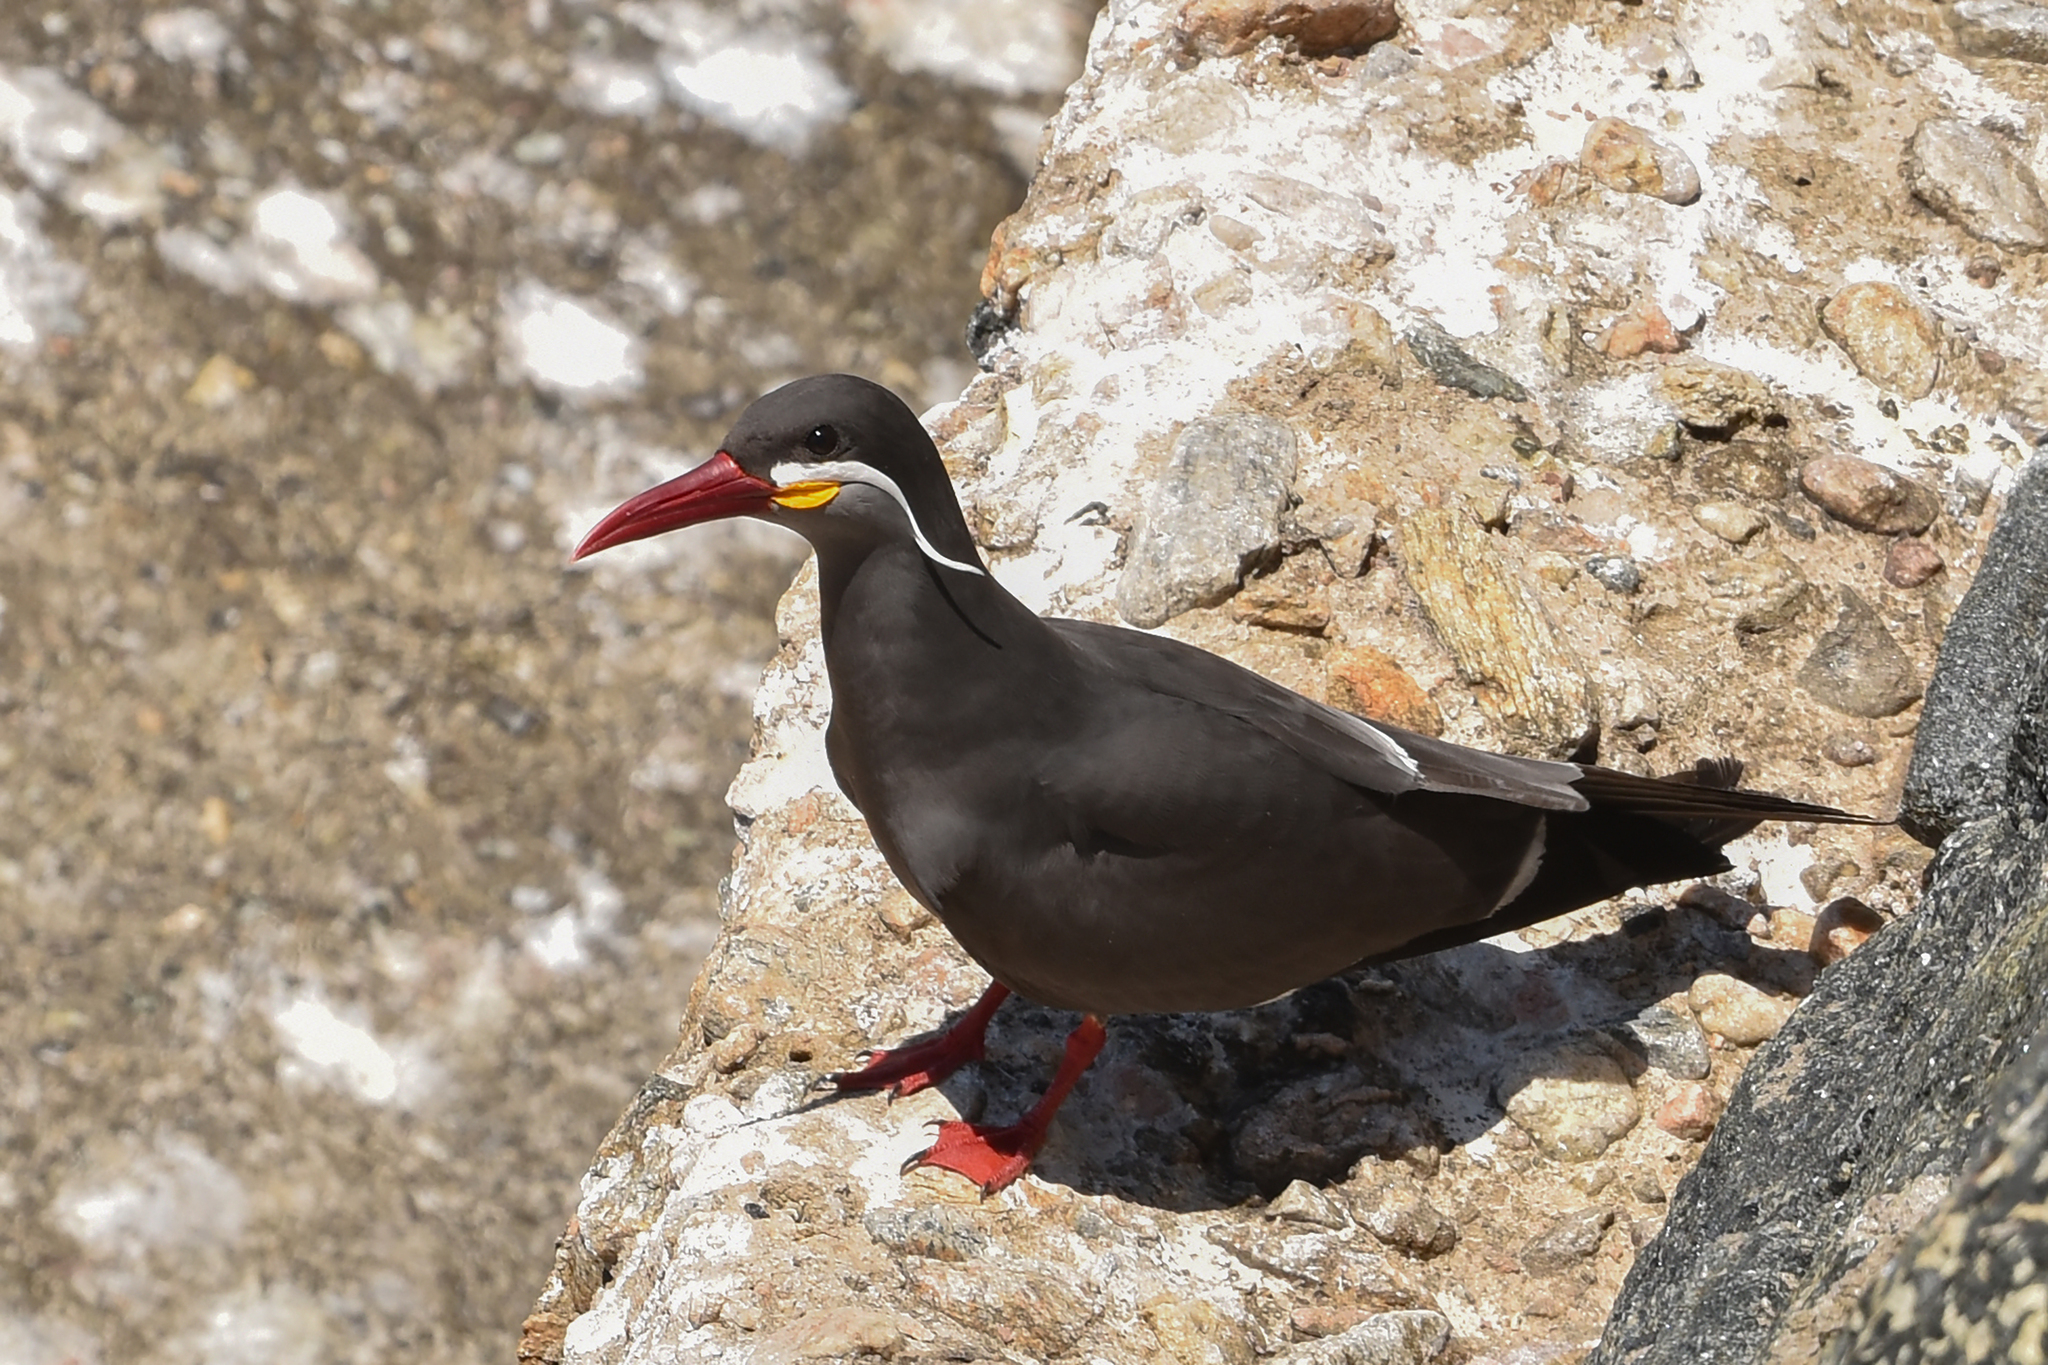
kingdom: Animalia
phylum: Chordata
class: Aves
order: Charadriiformes
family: Laridae
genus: Larosterna
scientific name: Larosterna inca
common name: Inca tern
